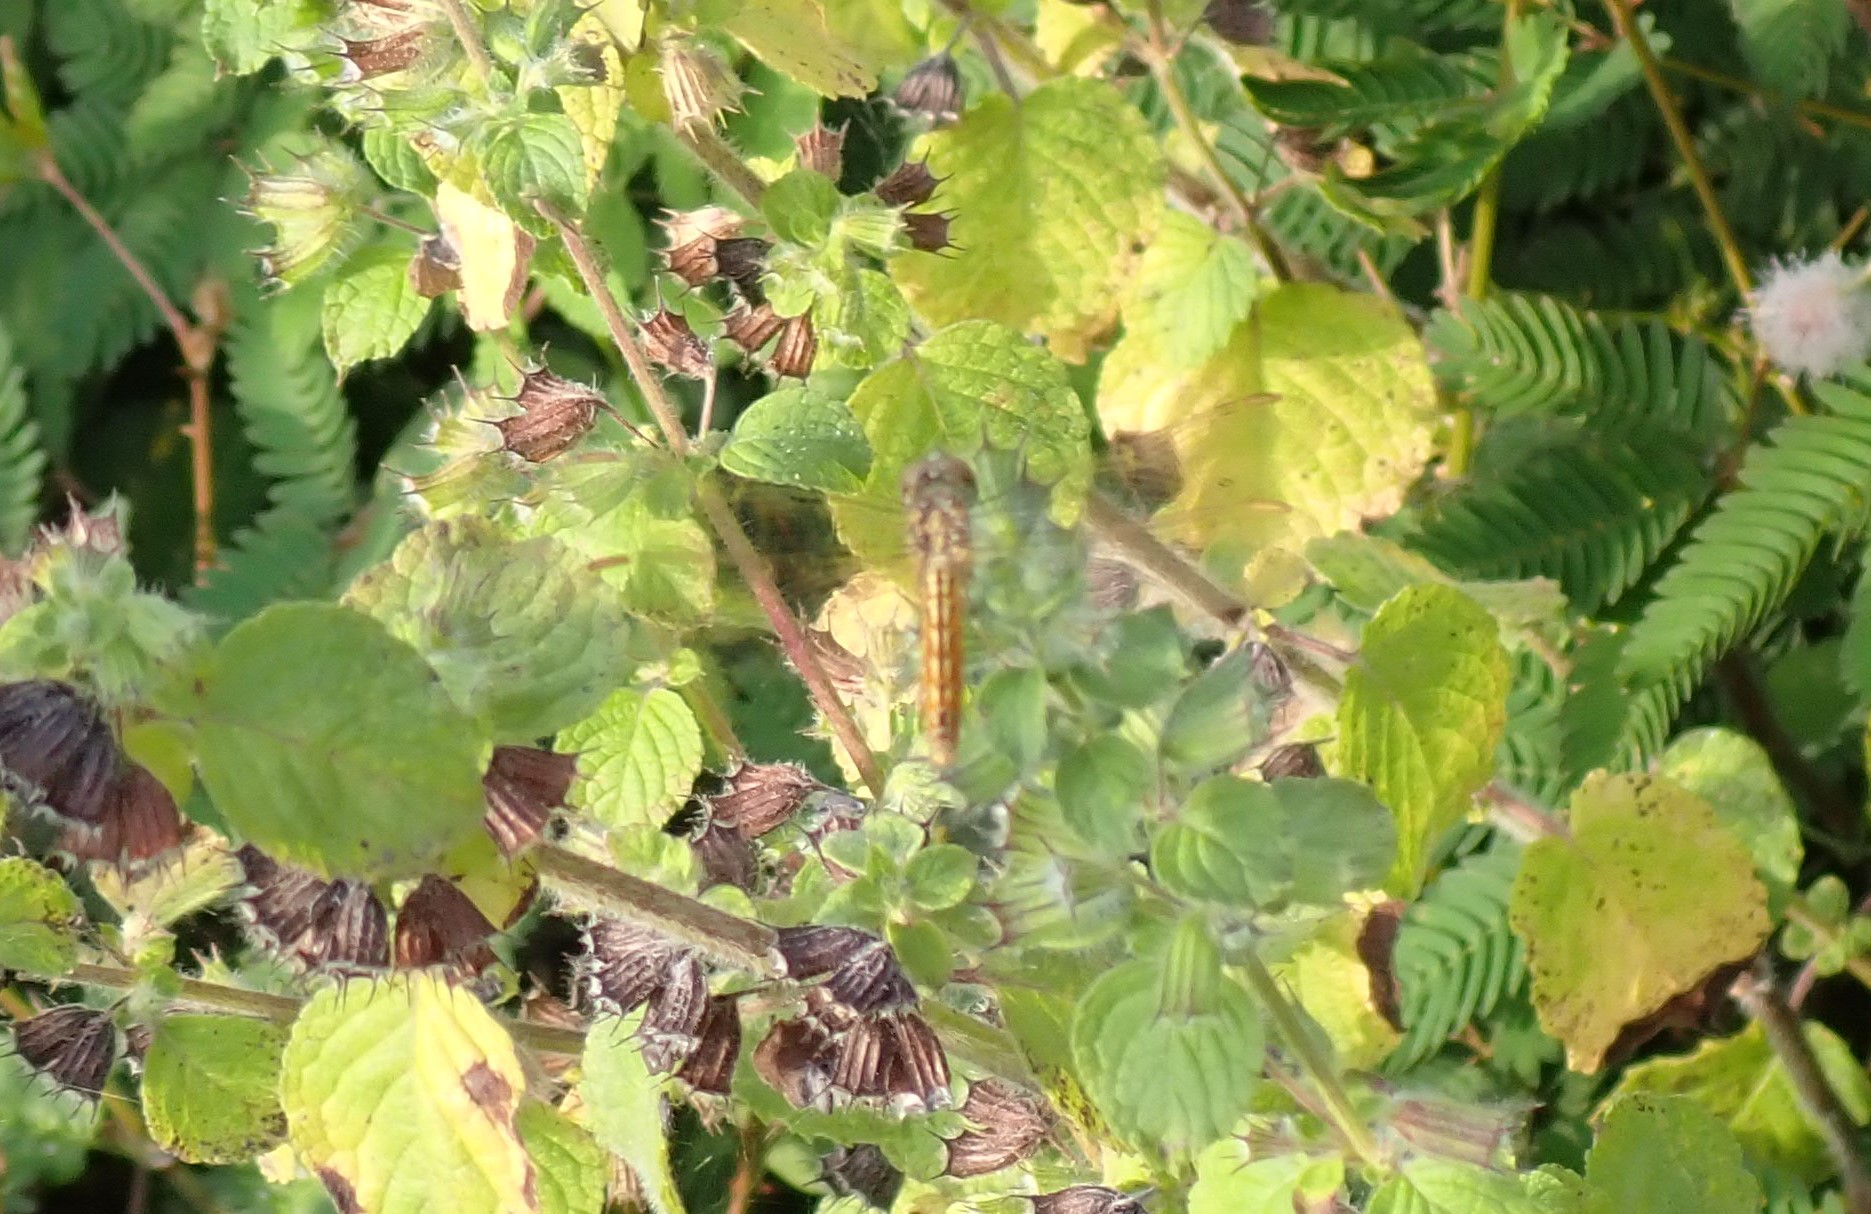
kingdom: Animalia
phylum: Arthropoda
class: Insecta
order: Odonata
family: Libellulidae
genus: Brachythemis
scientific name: Brachythemis contaminata
